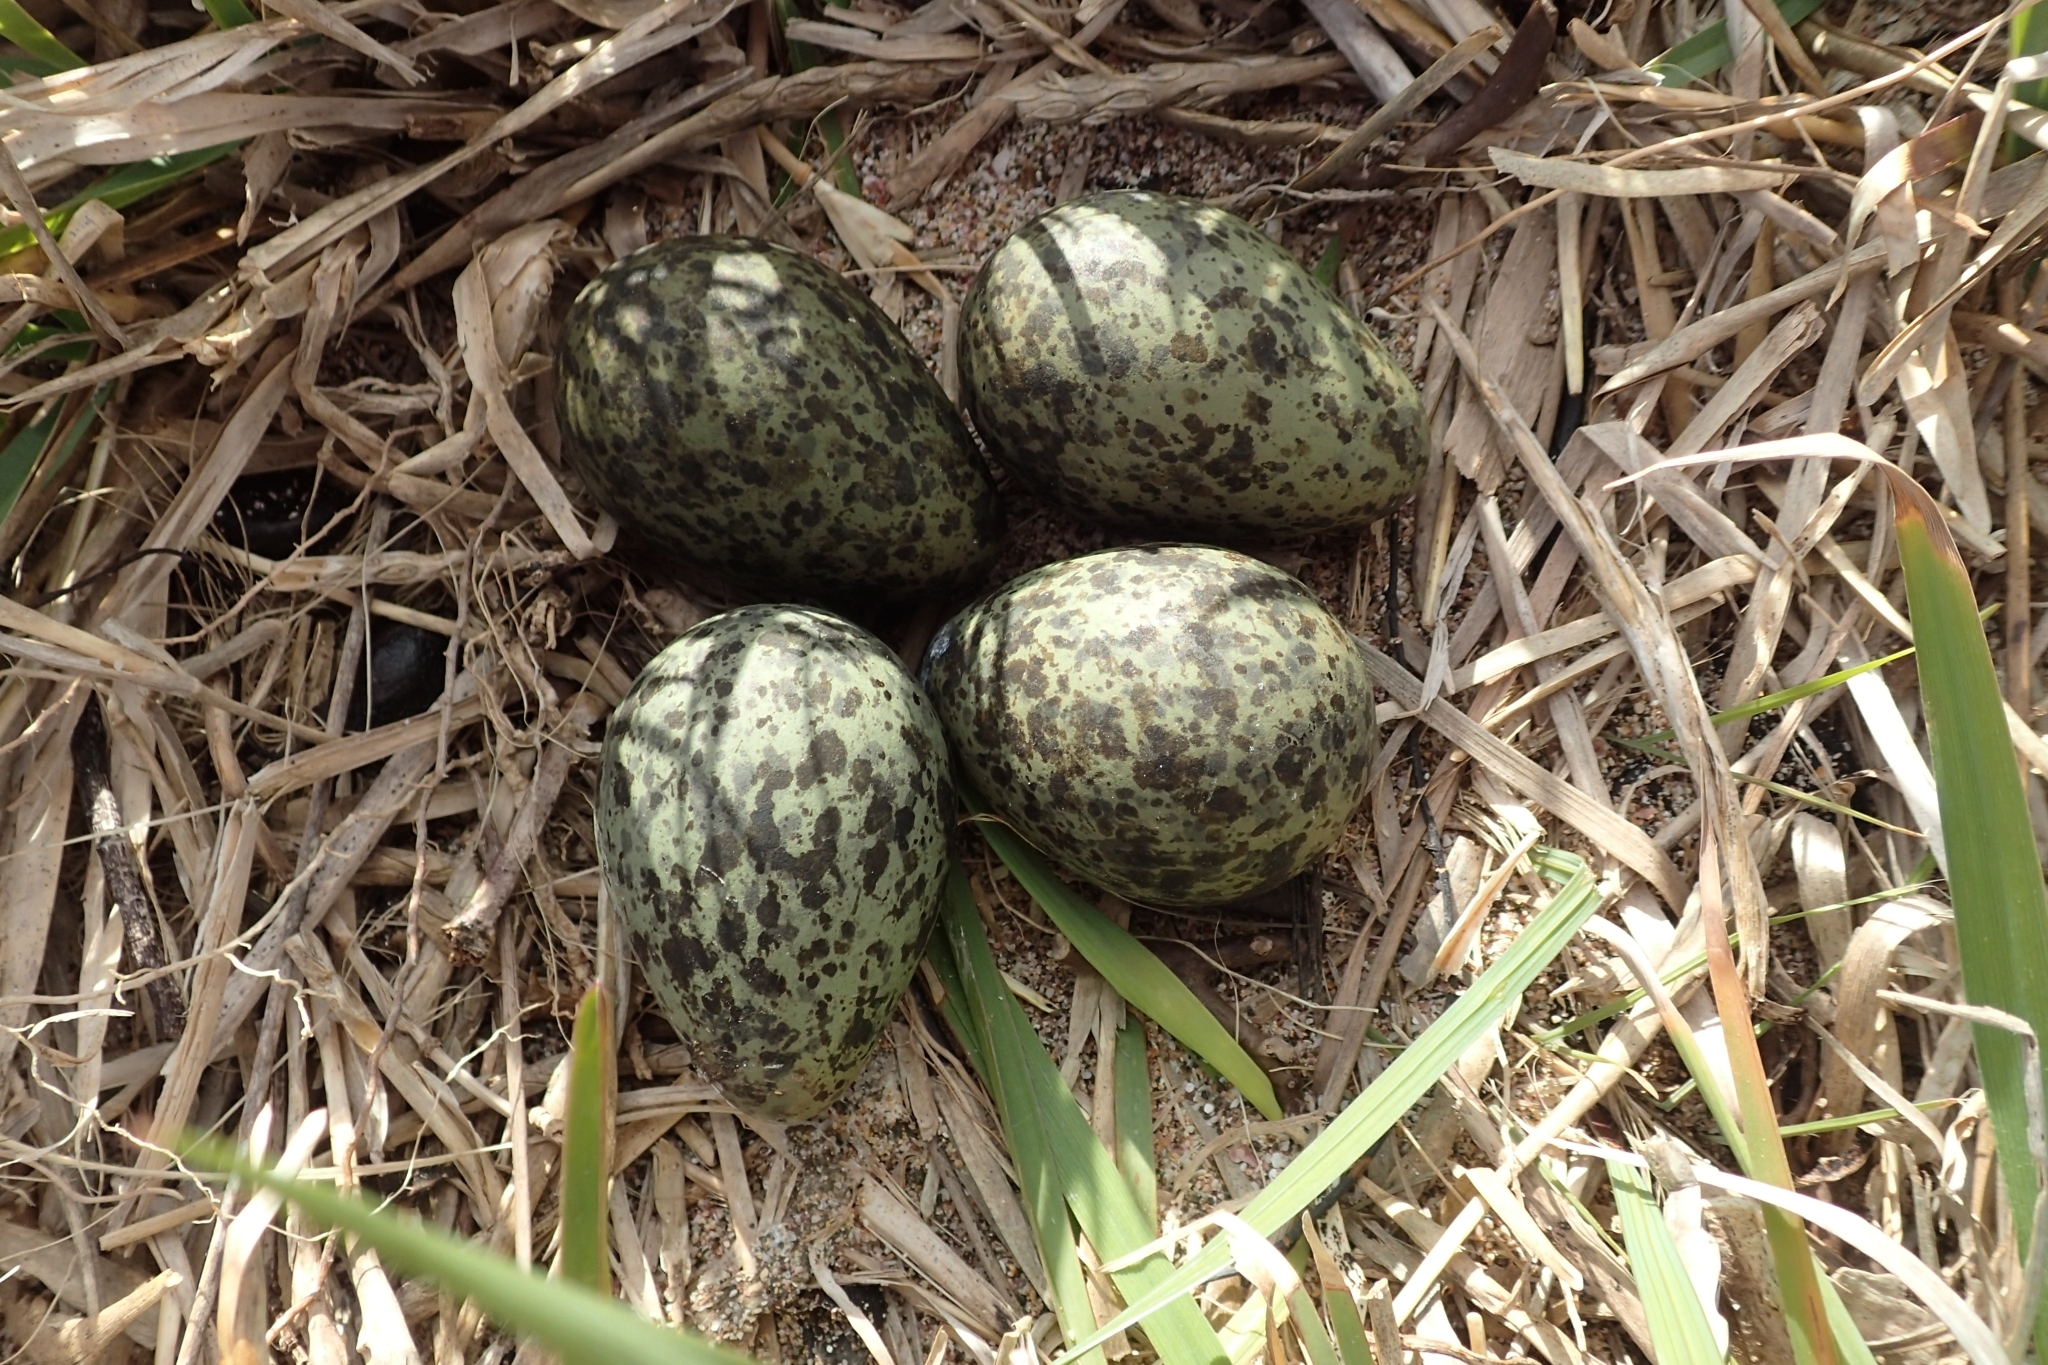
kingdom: Animalia
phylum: Chordata
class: Aves
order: Charadriiformes
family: Charadriidae
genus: Vanellus
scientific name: Vanellus miles
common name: Masked lapwing
